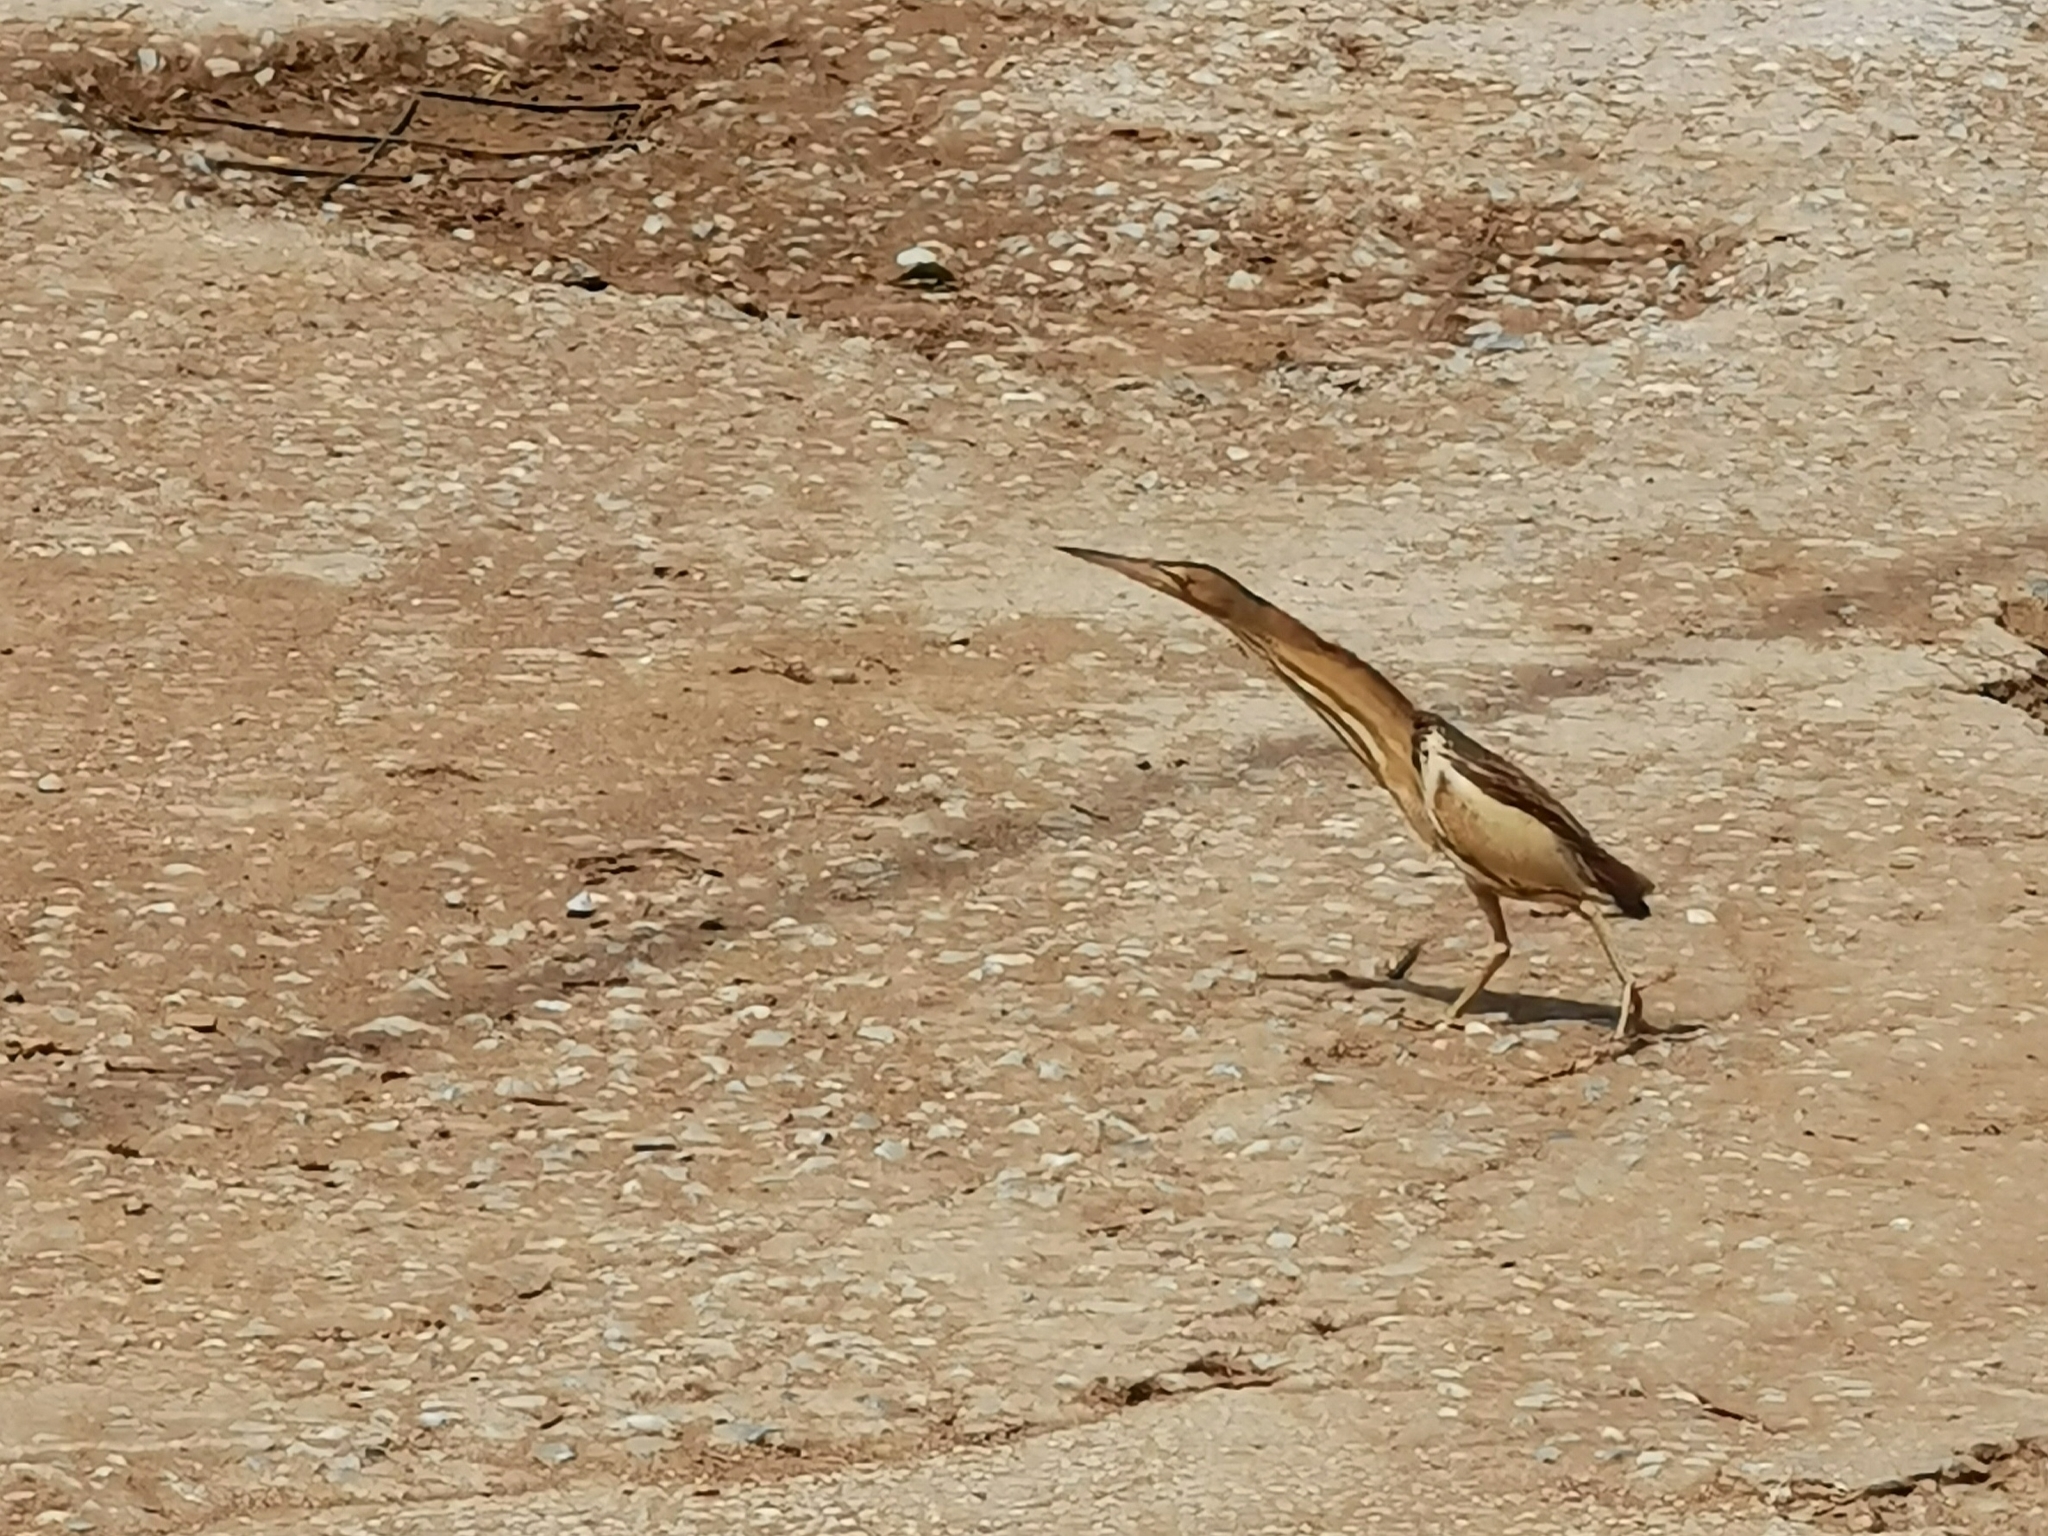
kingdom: Animalia
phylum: Chordata
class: Aves
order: Pelecaniformes
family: Ardeidae
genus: Ixobrychus
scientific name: Ixobrychus minutus
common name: Little bittern
